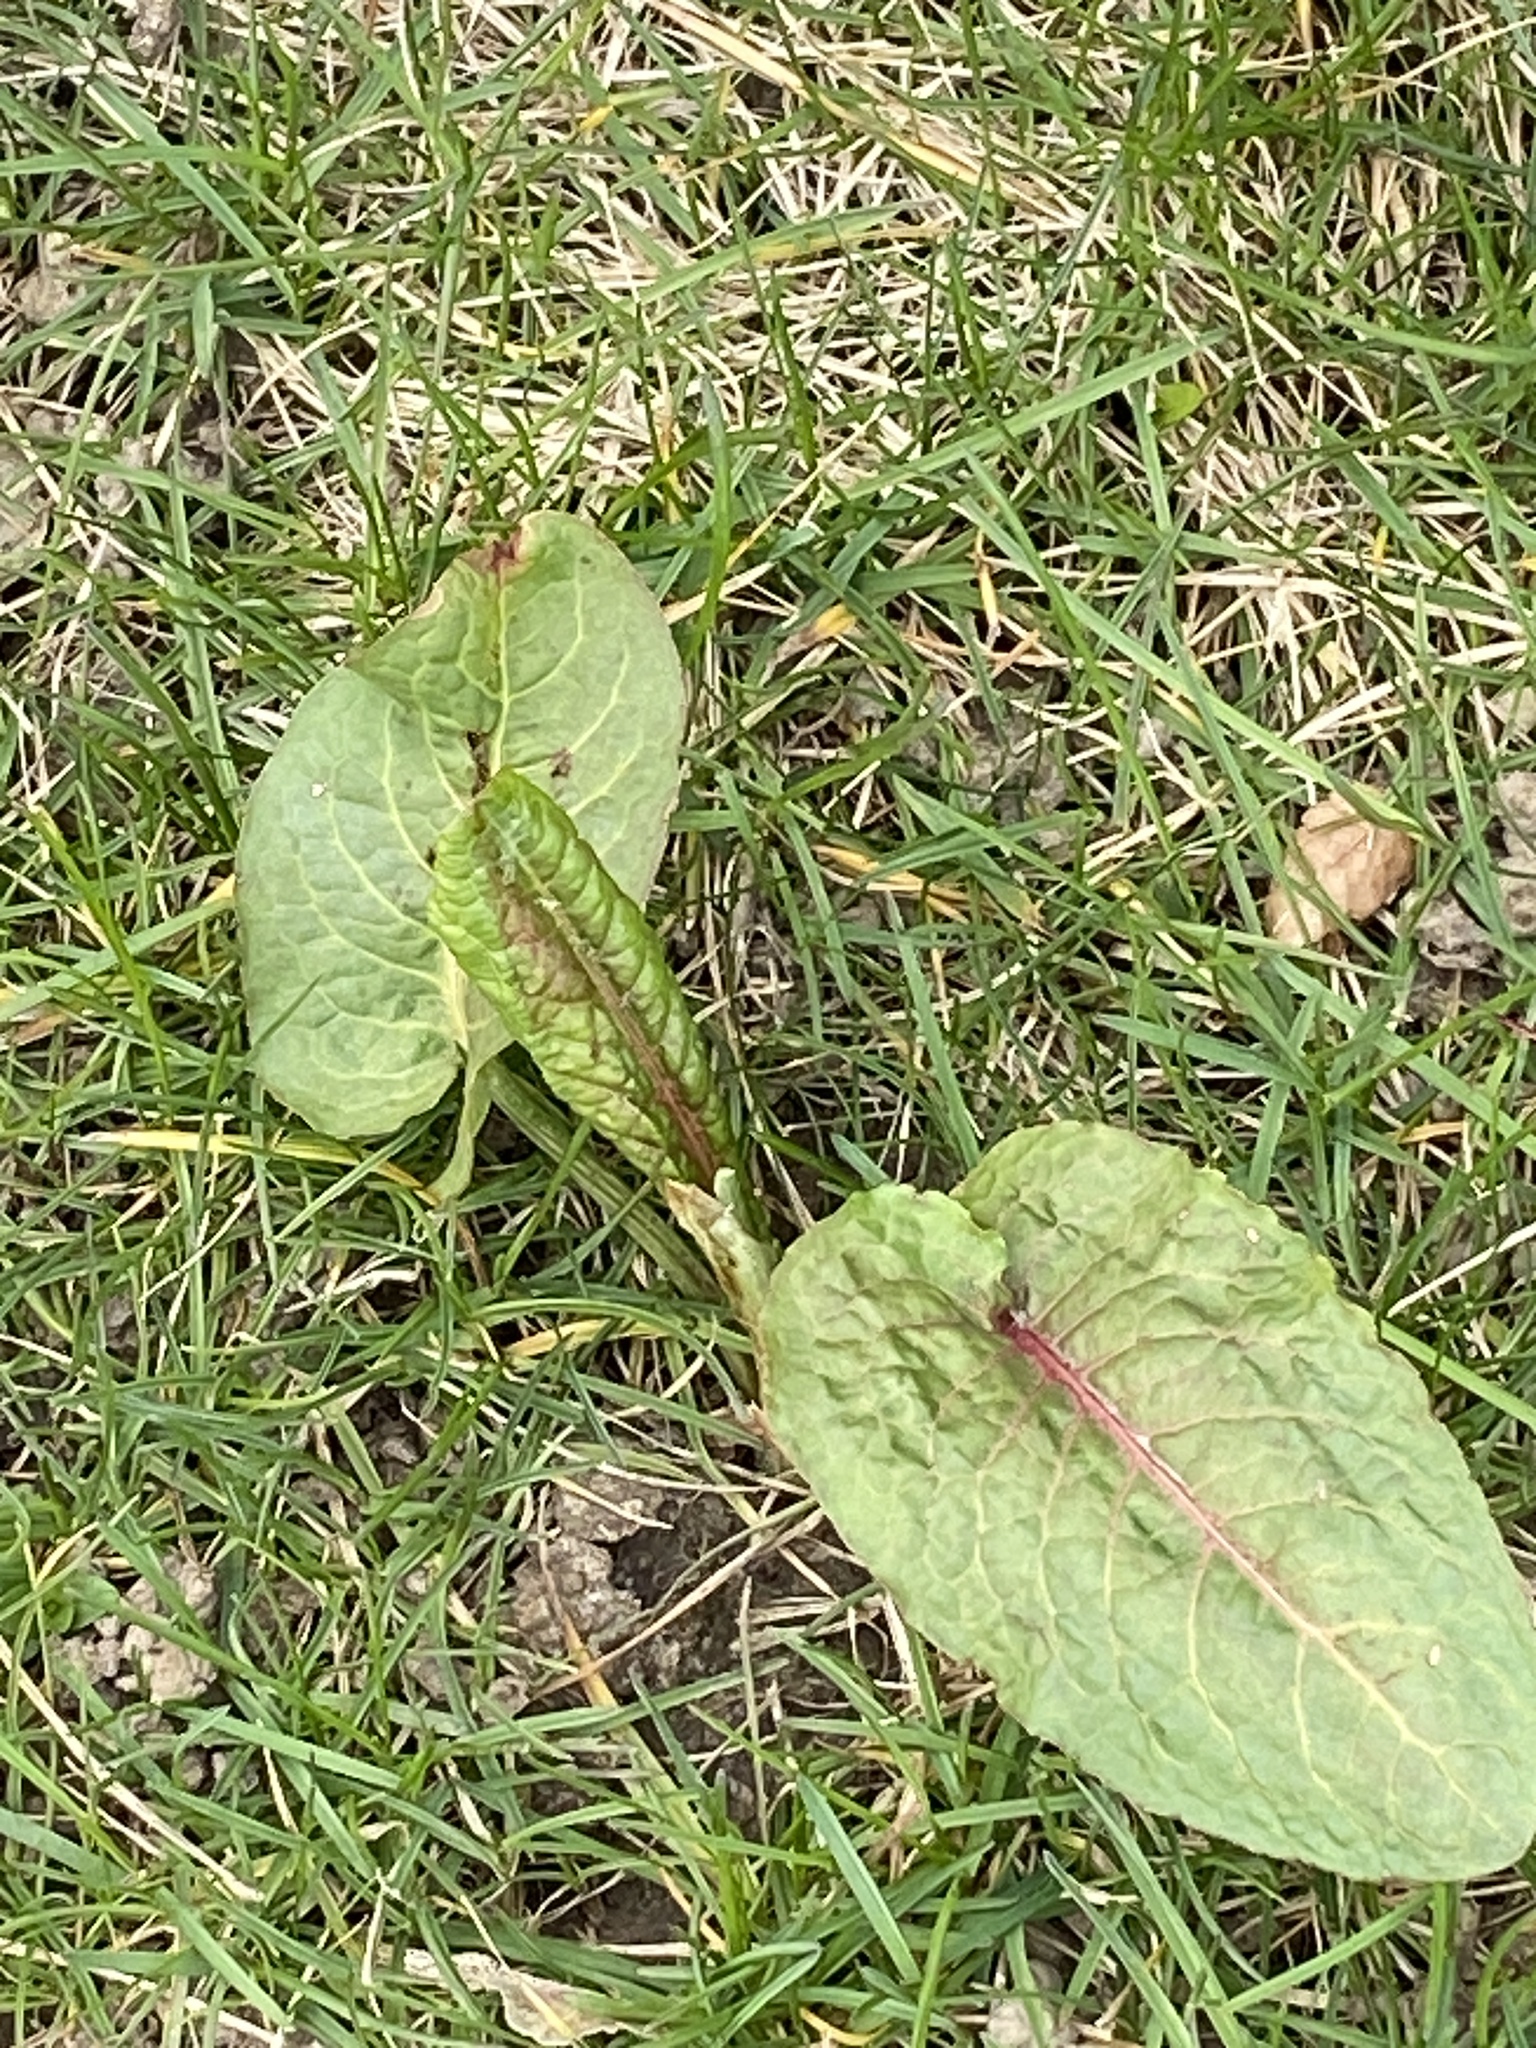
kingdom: Plantae
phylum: Tracheophyta
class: Magnoliopsida
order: Caryophyllales
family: Polygonaceae
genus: Rumex
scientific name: Rumex obtusifolius
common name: Bitter dock
